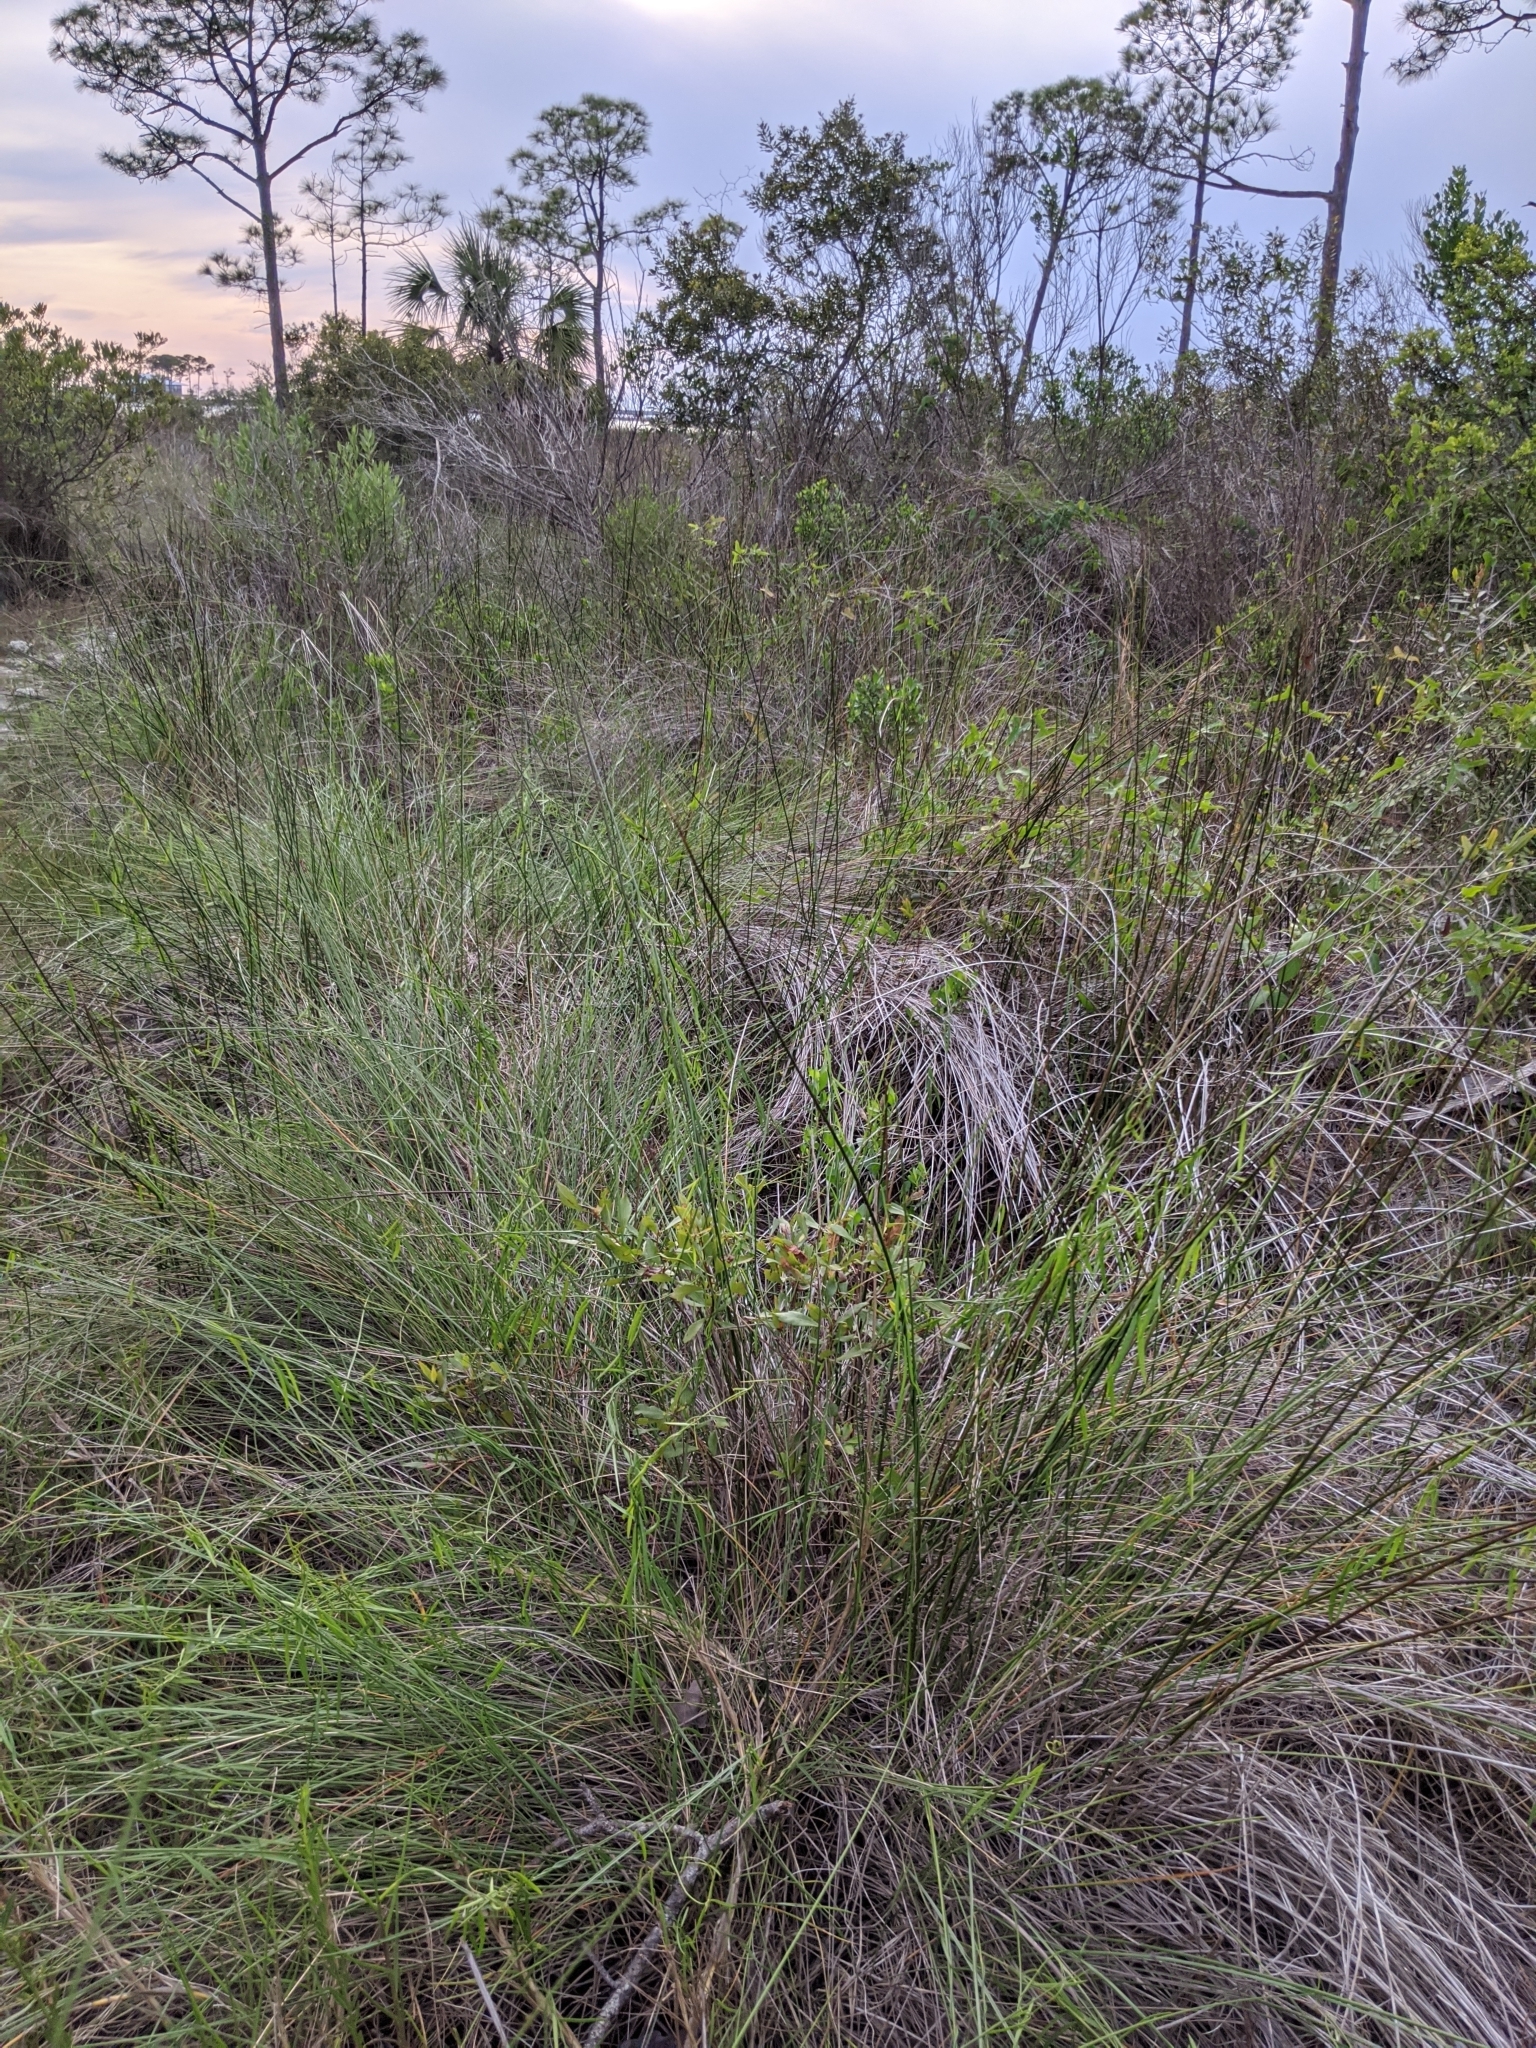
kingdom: Plantae
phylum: Tracheophyta
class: Magnoliopsida
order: Gentianales
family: Apocynaceae
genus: Pattalias
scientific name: Pattalias
